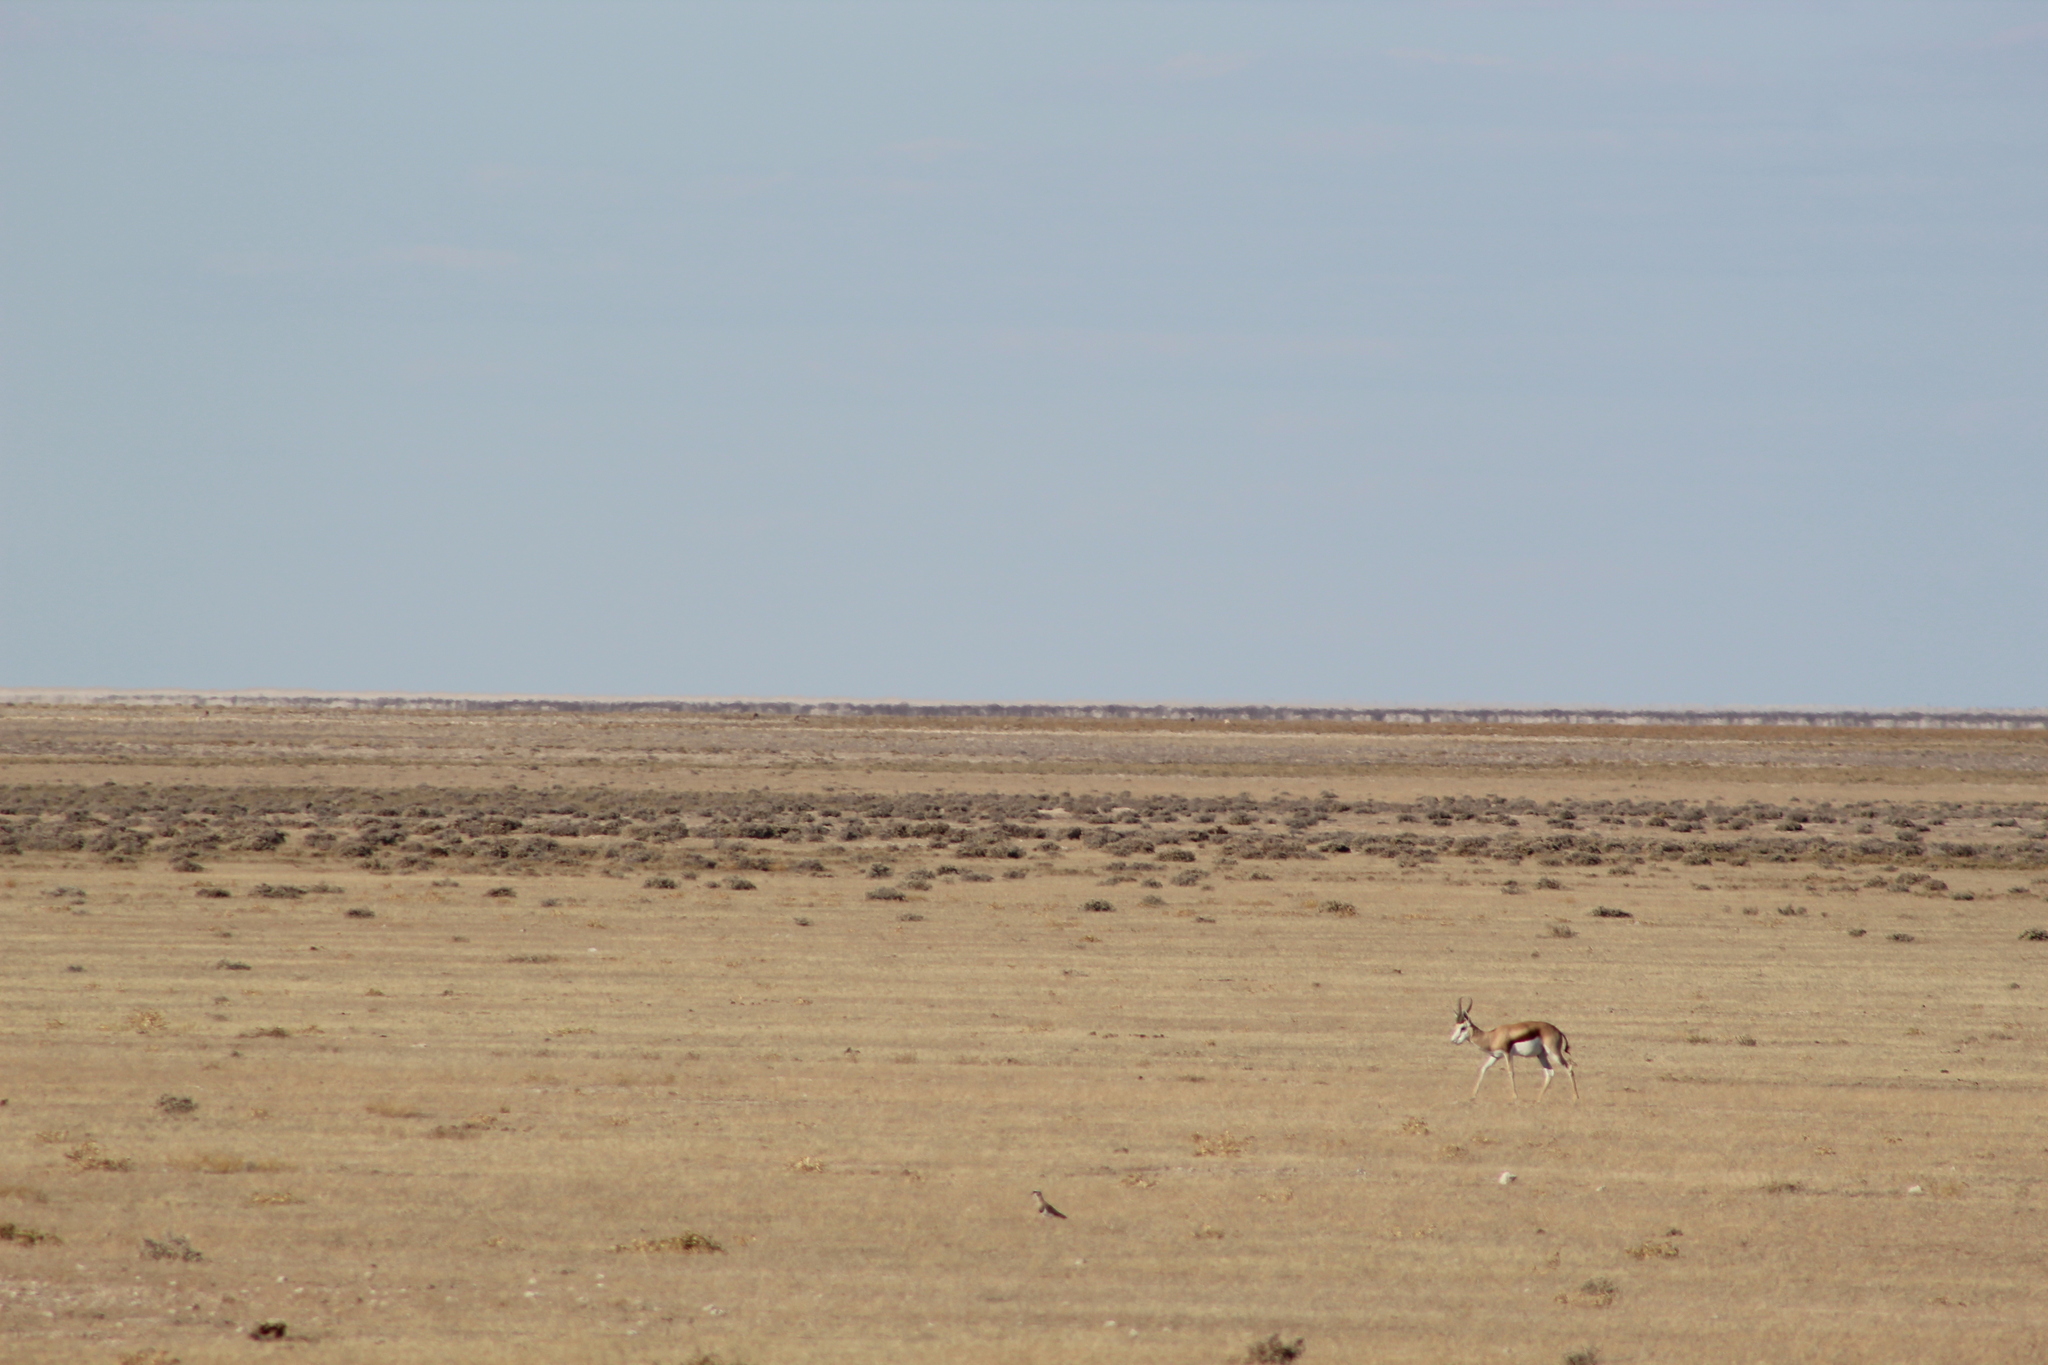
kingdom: Animalia
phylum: Chordata
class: Aves
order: Charadriiformes
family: Charadriidae
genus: Vanellus
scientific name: Vanellus coronatus
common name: Crowned lapwing
